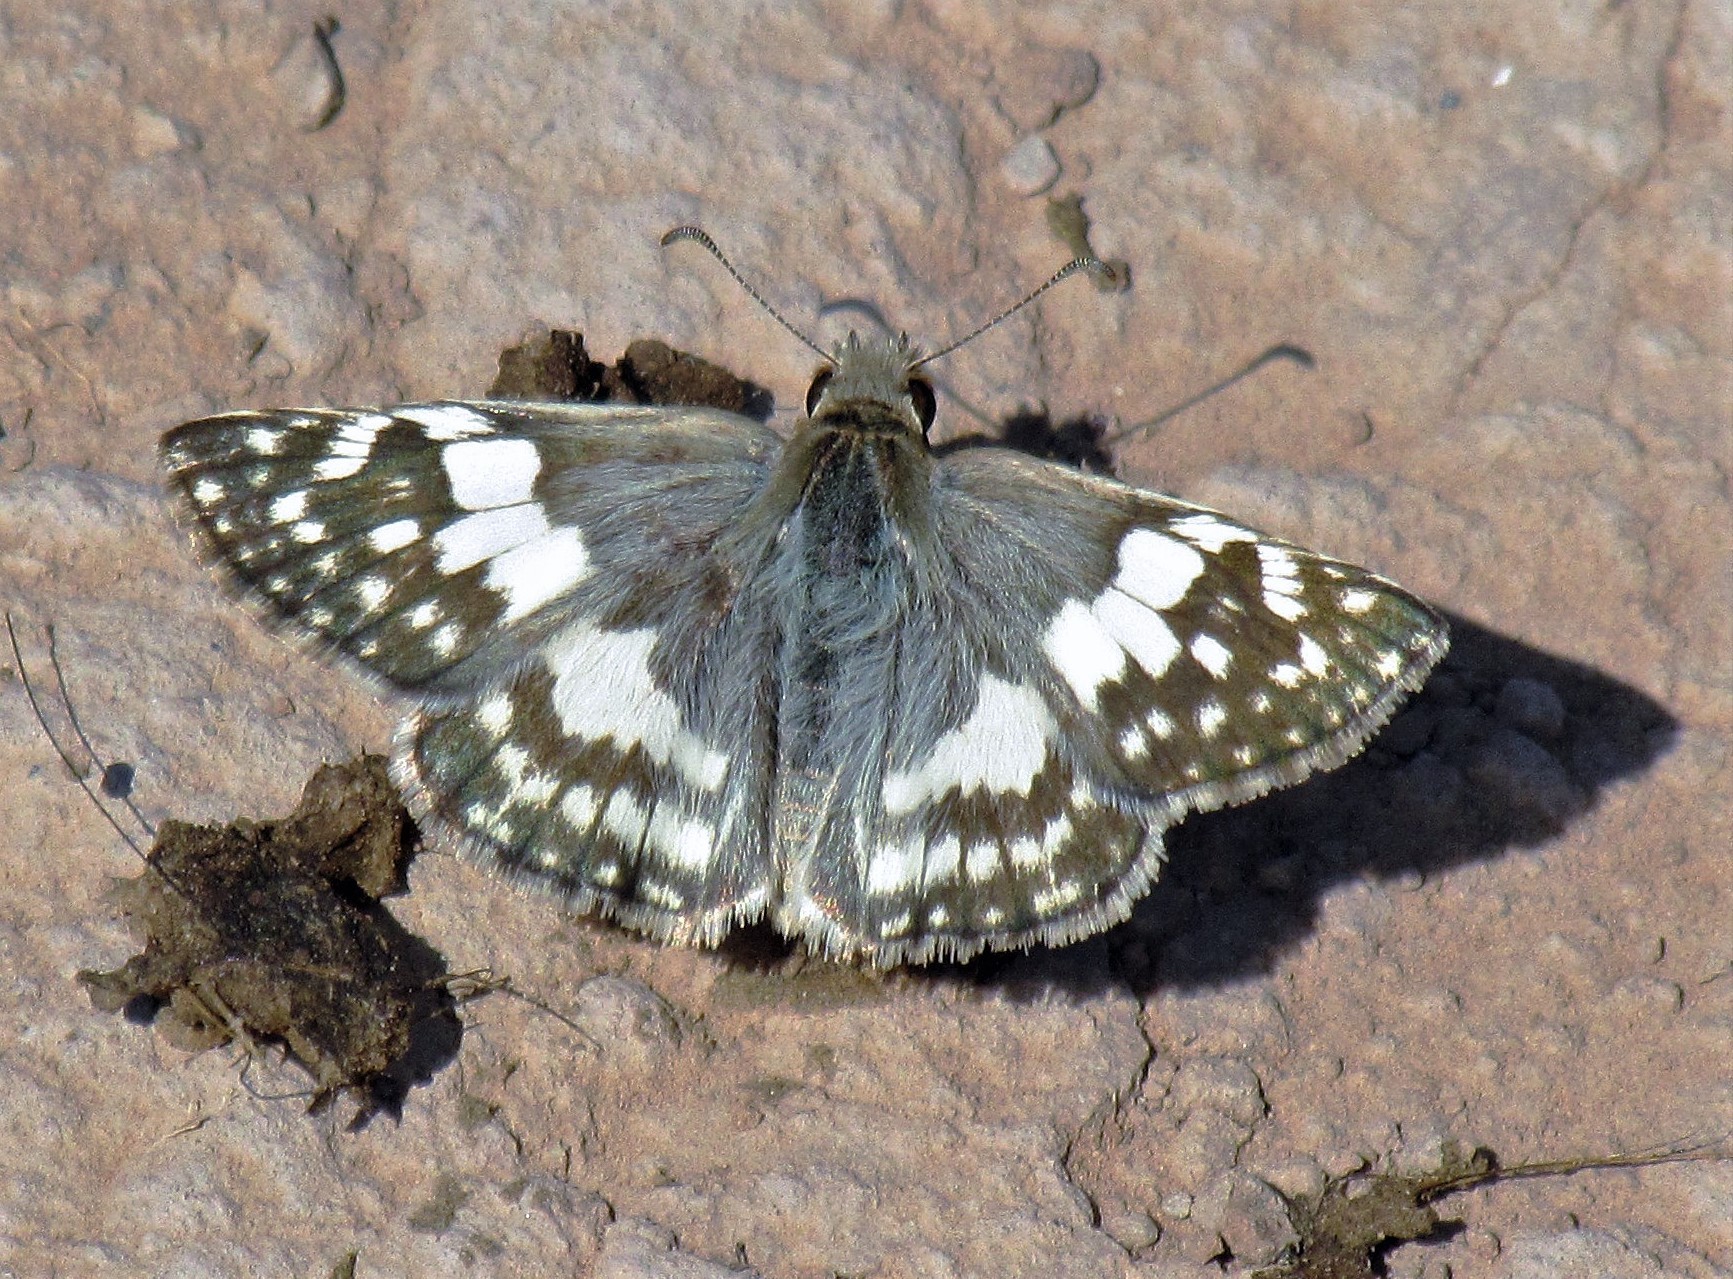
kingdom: Animalia
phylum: Arthropoda
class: Insecta
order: Lepidoptera
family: Hesperiidae
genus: Heliopyrgus
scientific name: Heliopyrgus domicella
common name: Erichson's white skipper
